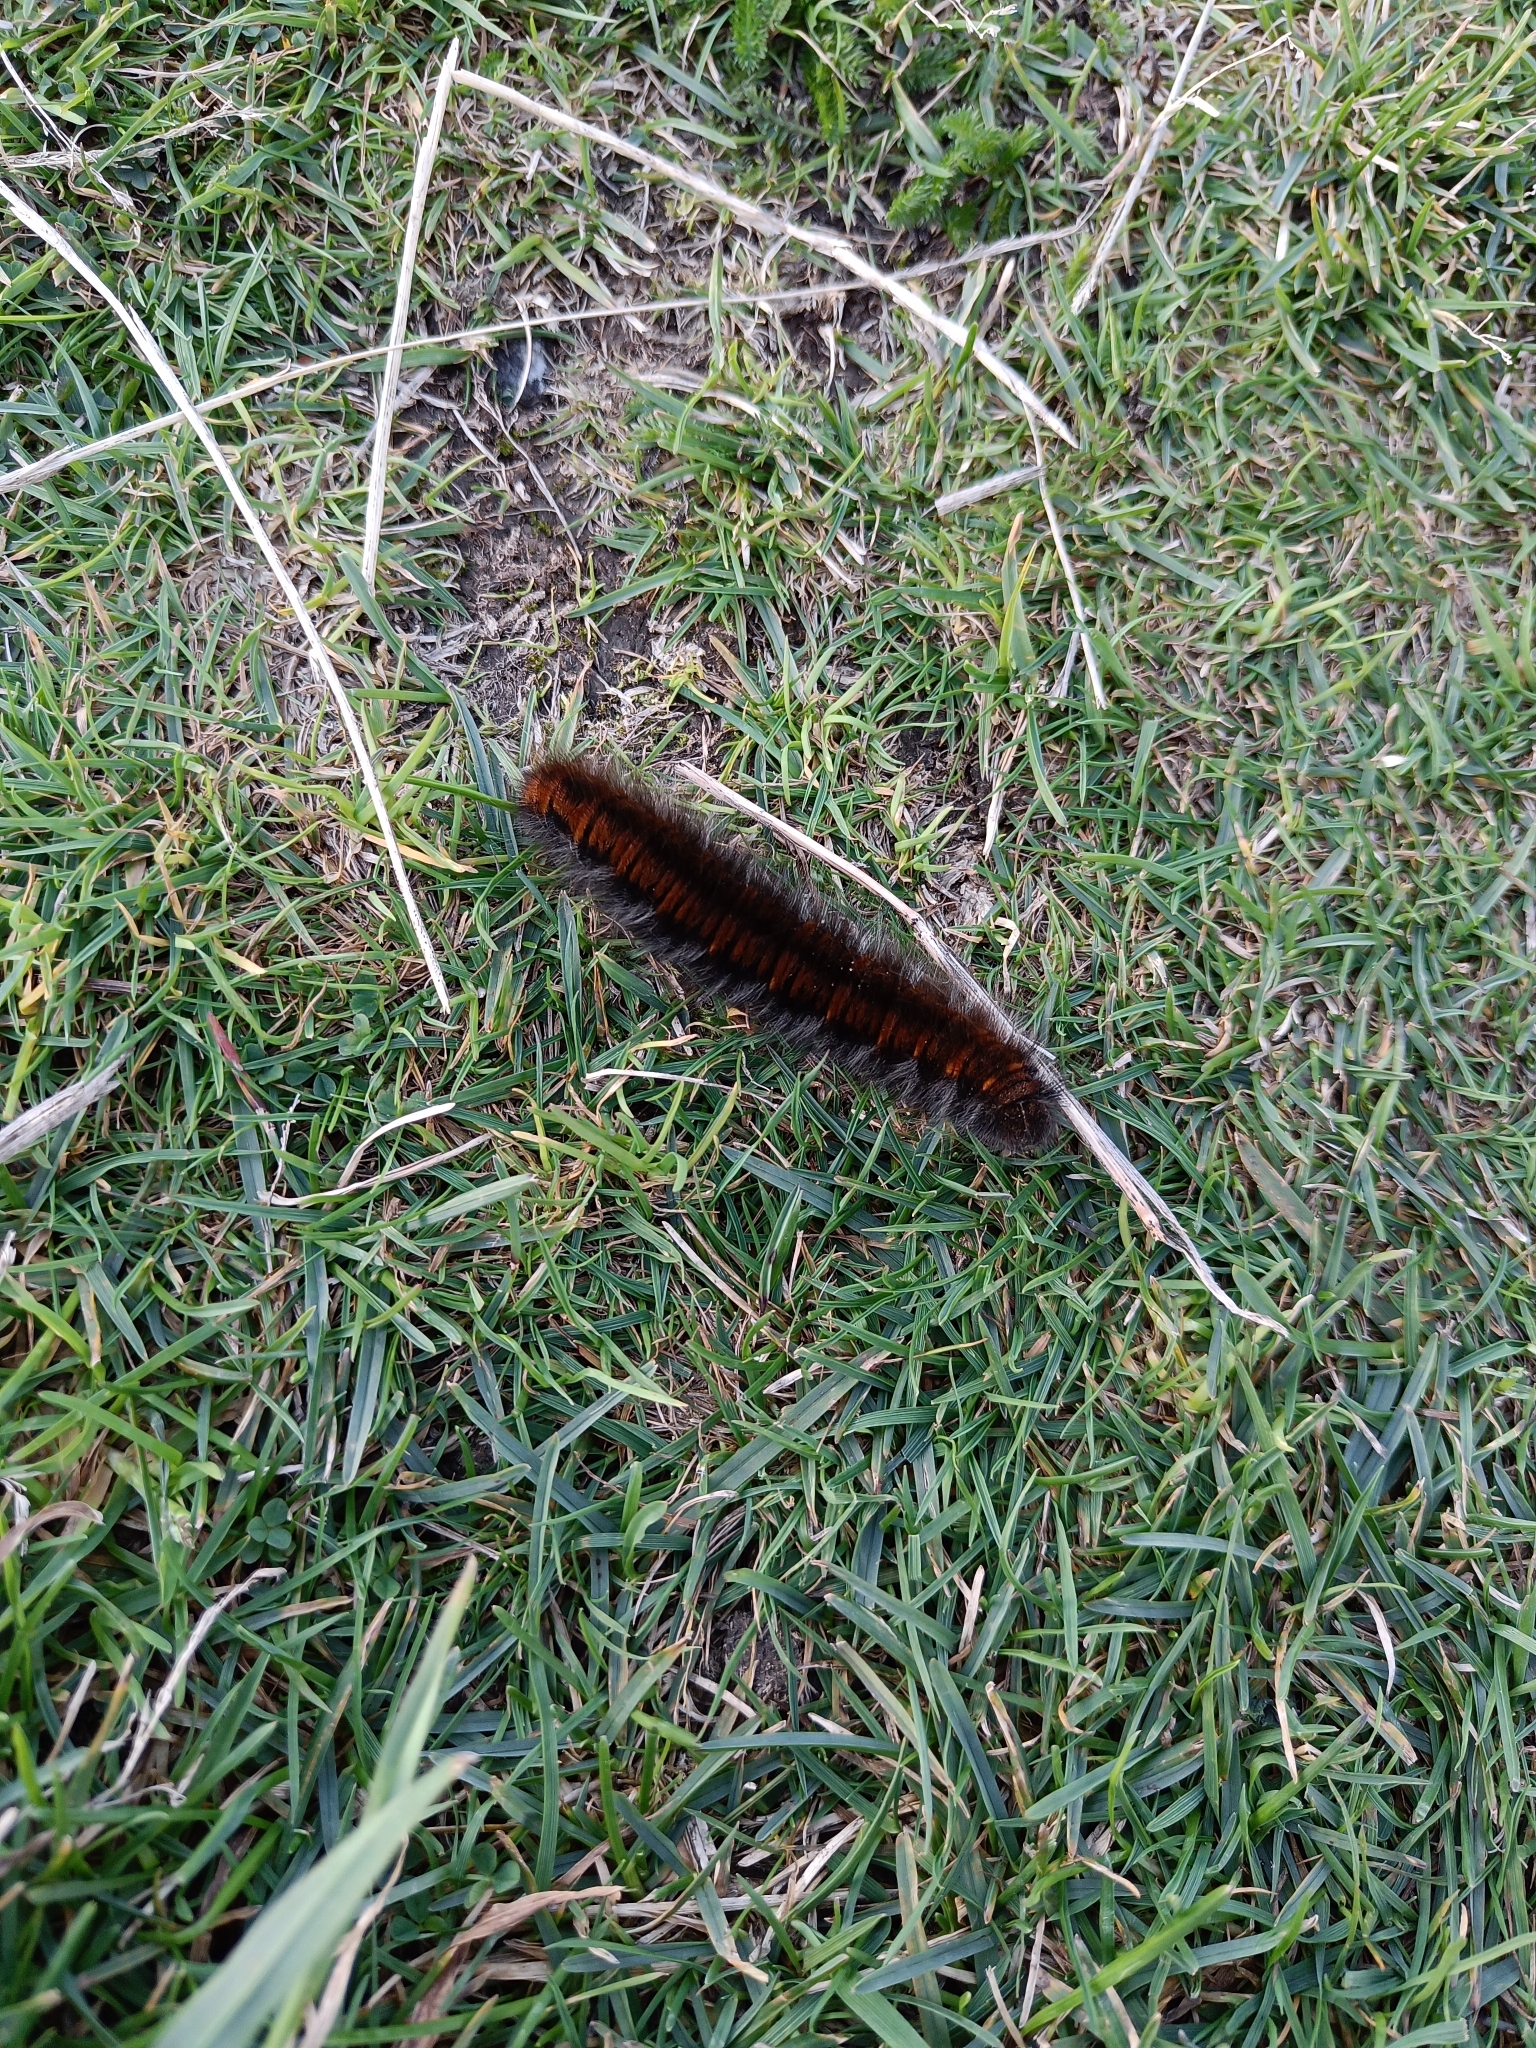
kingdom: Animalia
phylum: Arthropoda
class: Insecta
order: Lepidoptera
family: Lasiocampidae
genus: Macrothylacia
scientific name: Macrothylacia rubi
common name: Fox moth
